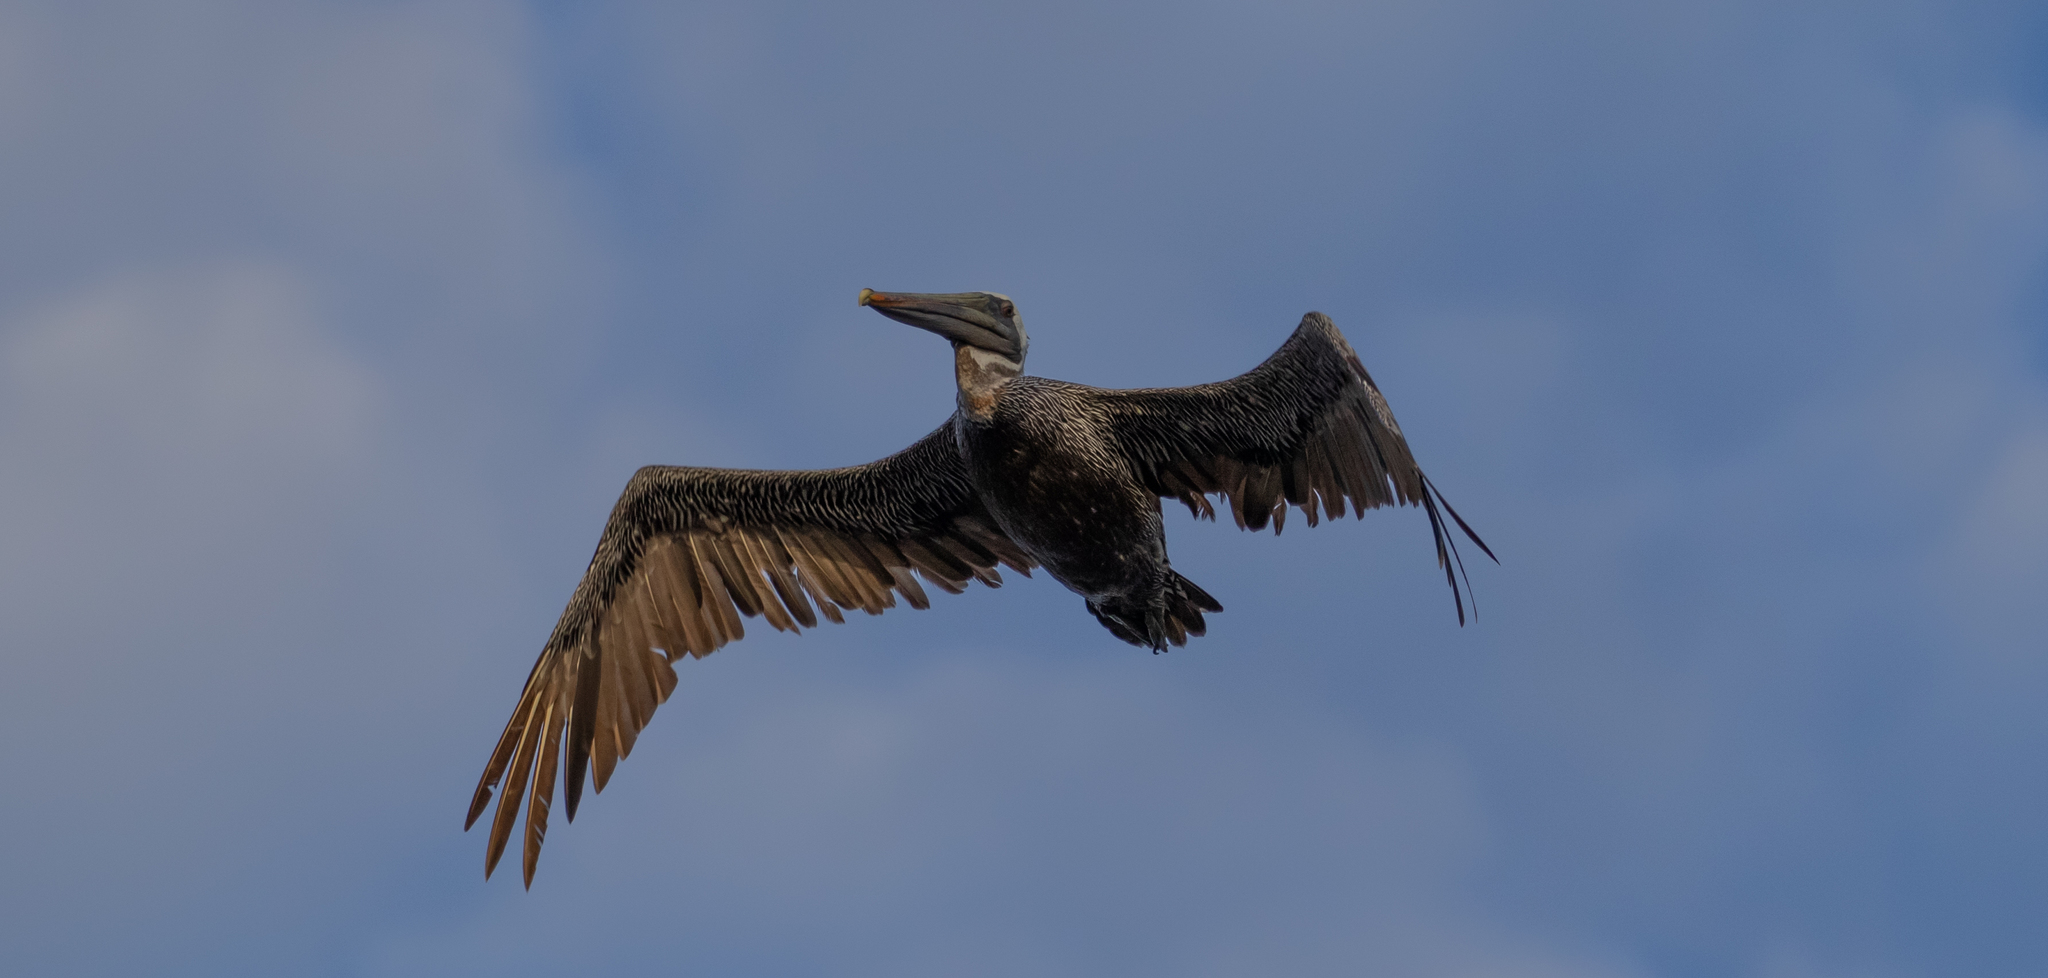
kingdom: Animalia
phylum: Chordata
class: Aves
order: Pelecaniformes
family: Pelecanidae
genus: Pelecanus
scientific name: Pelecanus occidentalis
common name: Brown pelican
